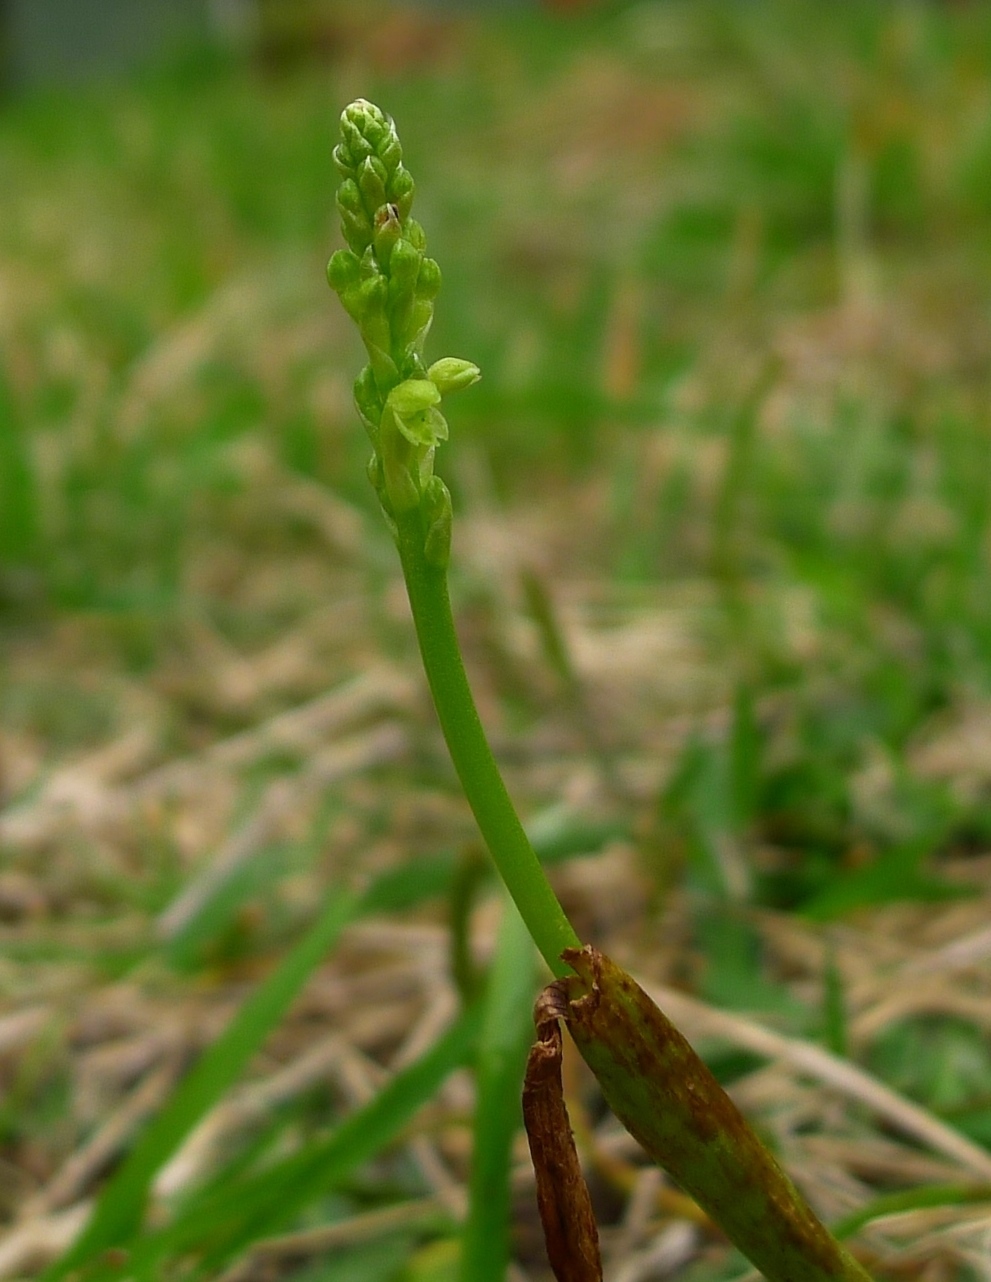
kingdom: Plantae
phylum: Tracheophyta
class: Liliopsida
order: Asparagales
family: Orchidaceae
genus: Microtis
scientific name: Microtis unifolia
